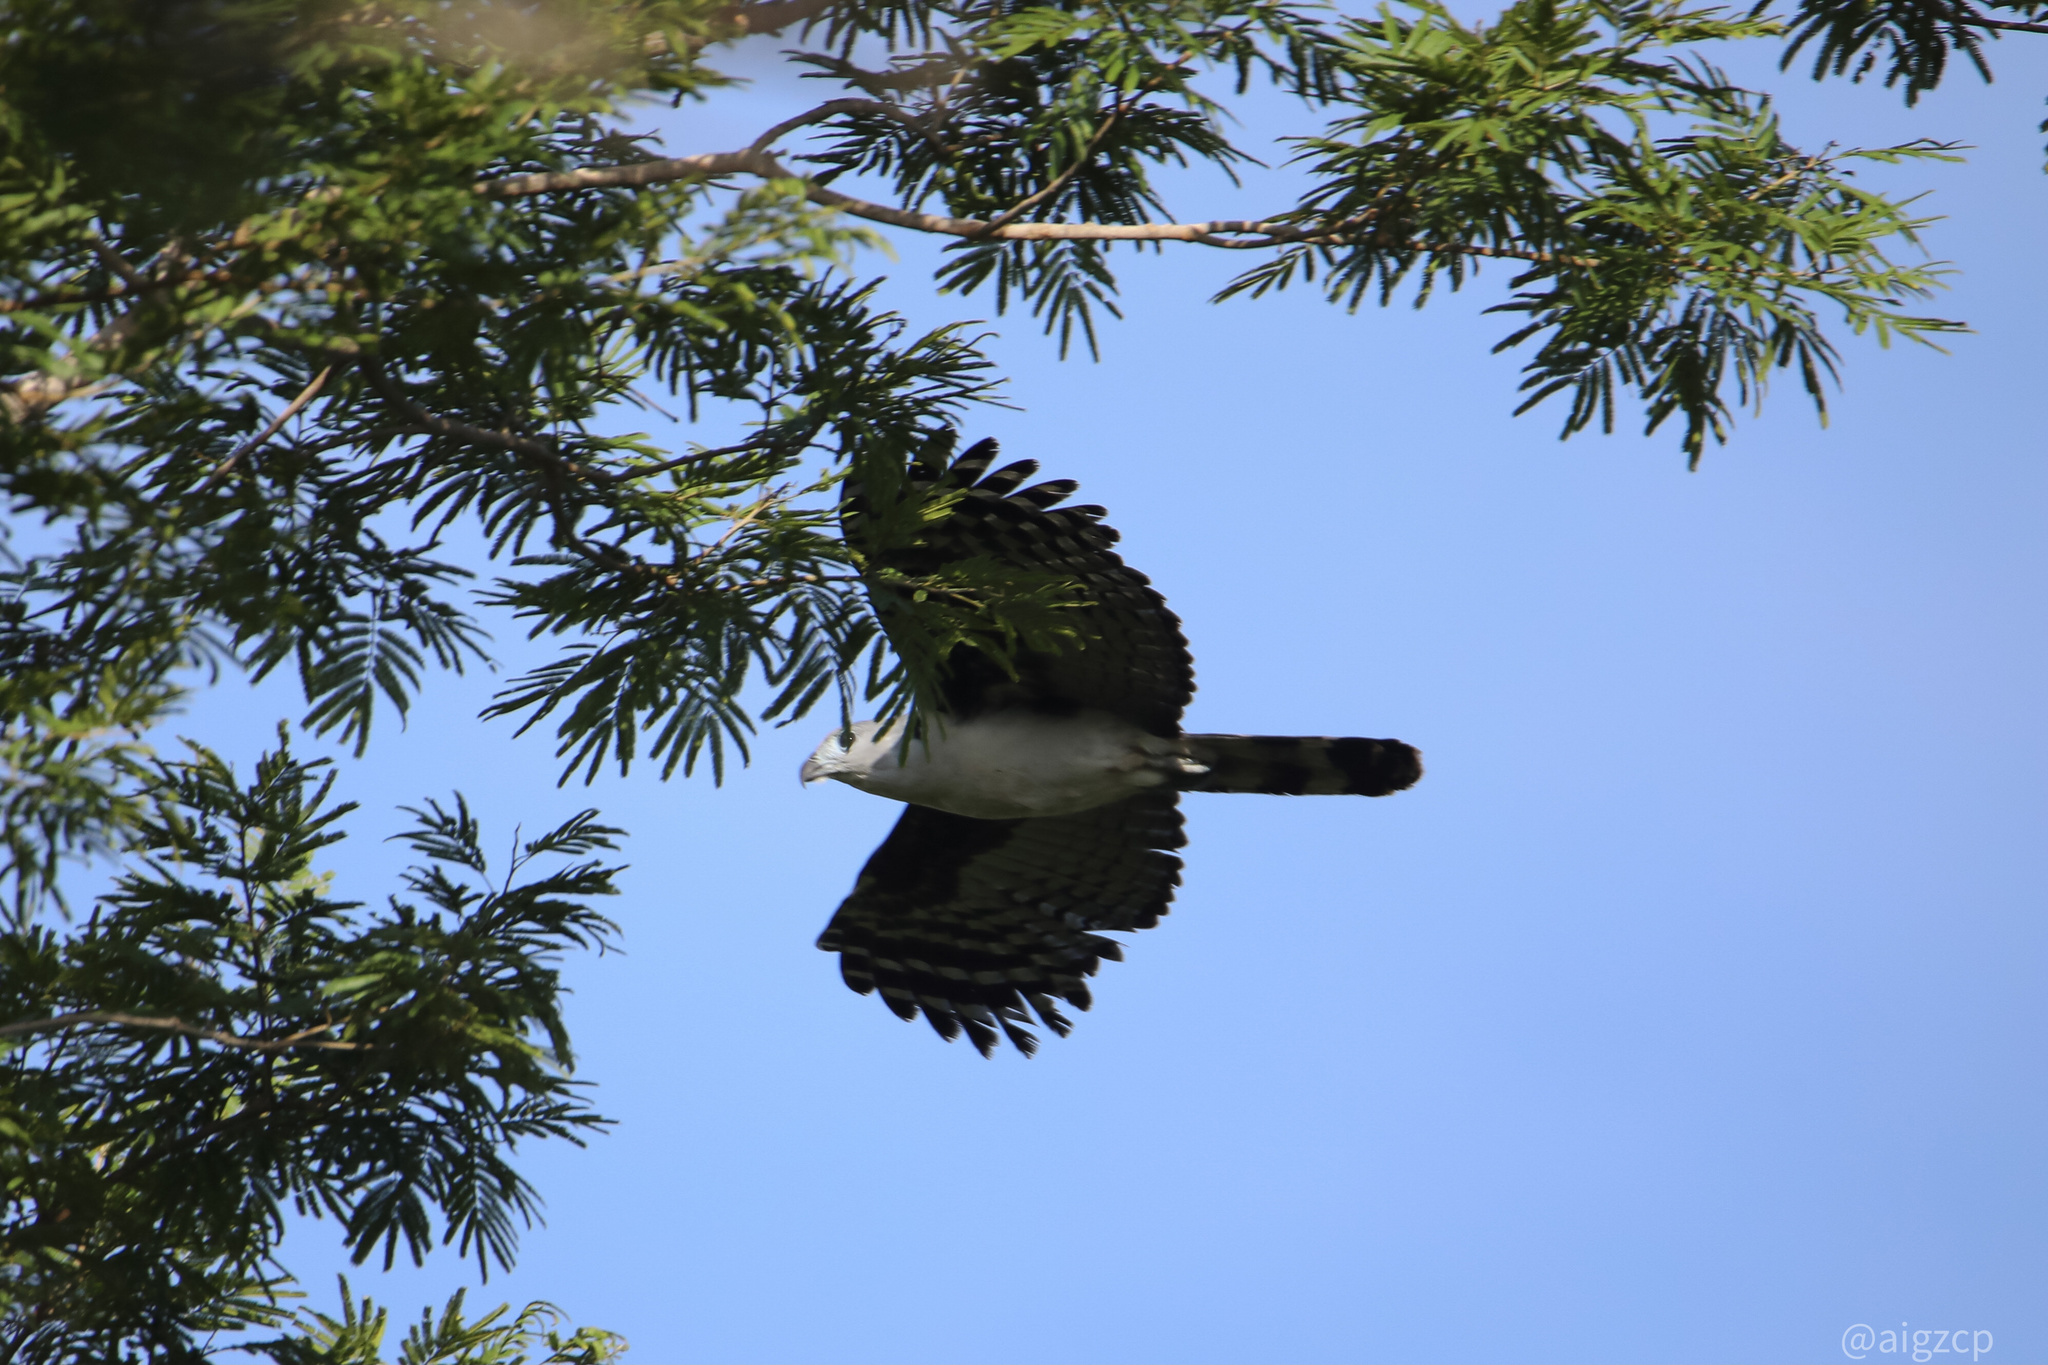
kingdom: Animalia
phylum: Chordata
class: Aves
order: Accipitriformes
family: Accipitridae
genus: Leptodon
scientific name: Leptodon cayanensis
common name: Gray-headed kite
